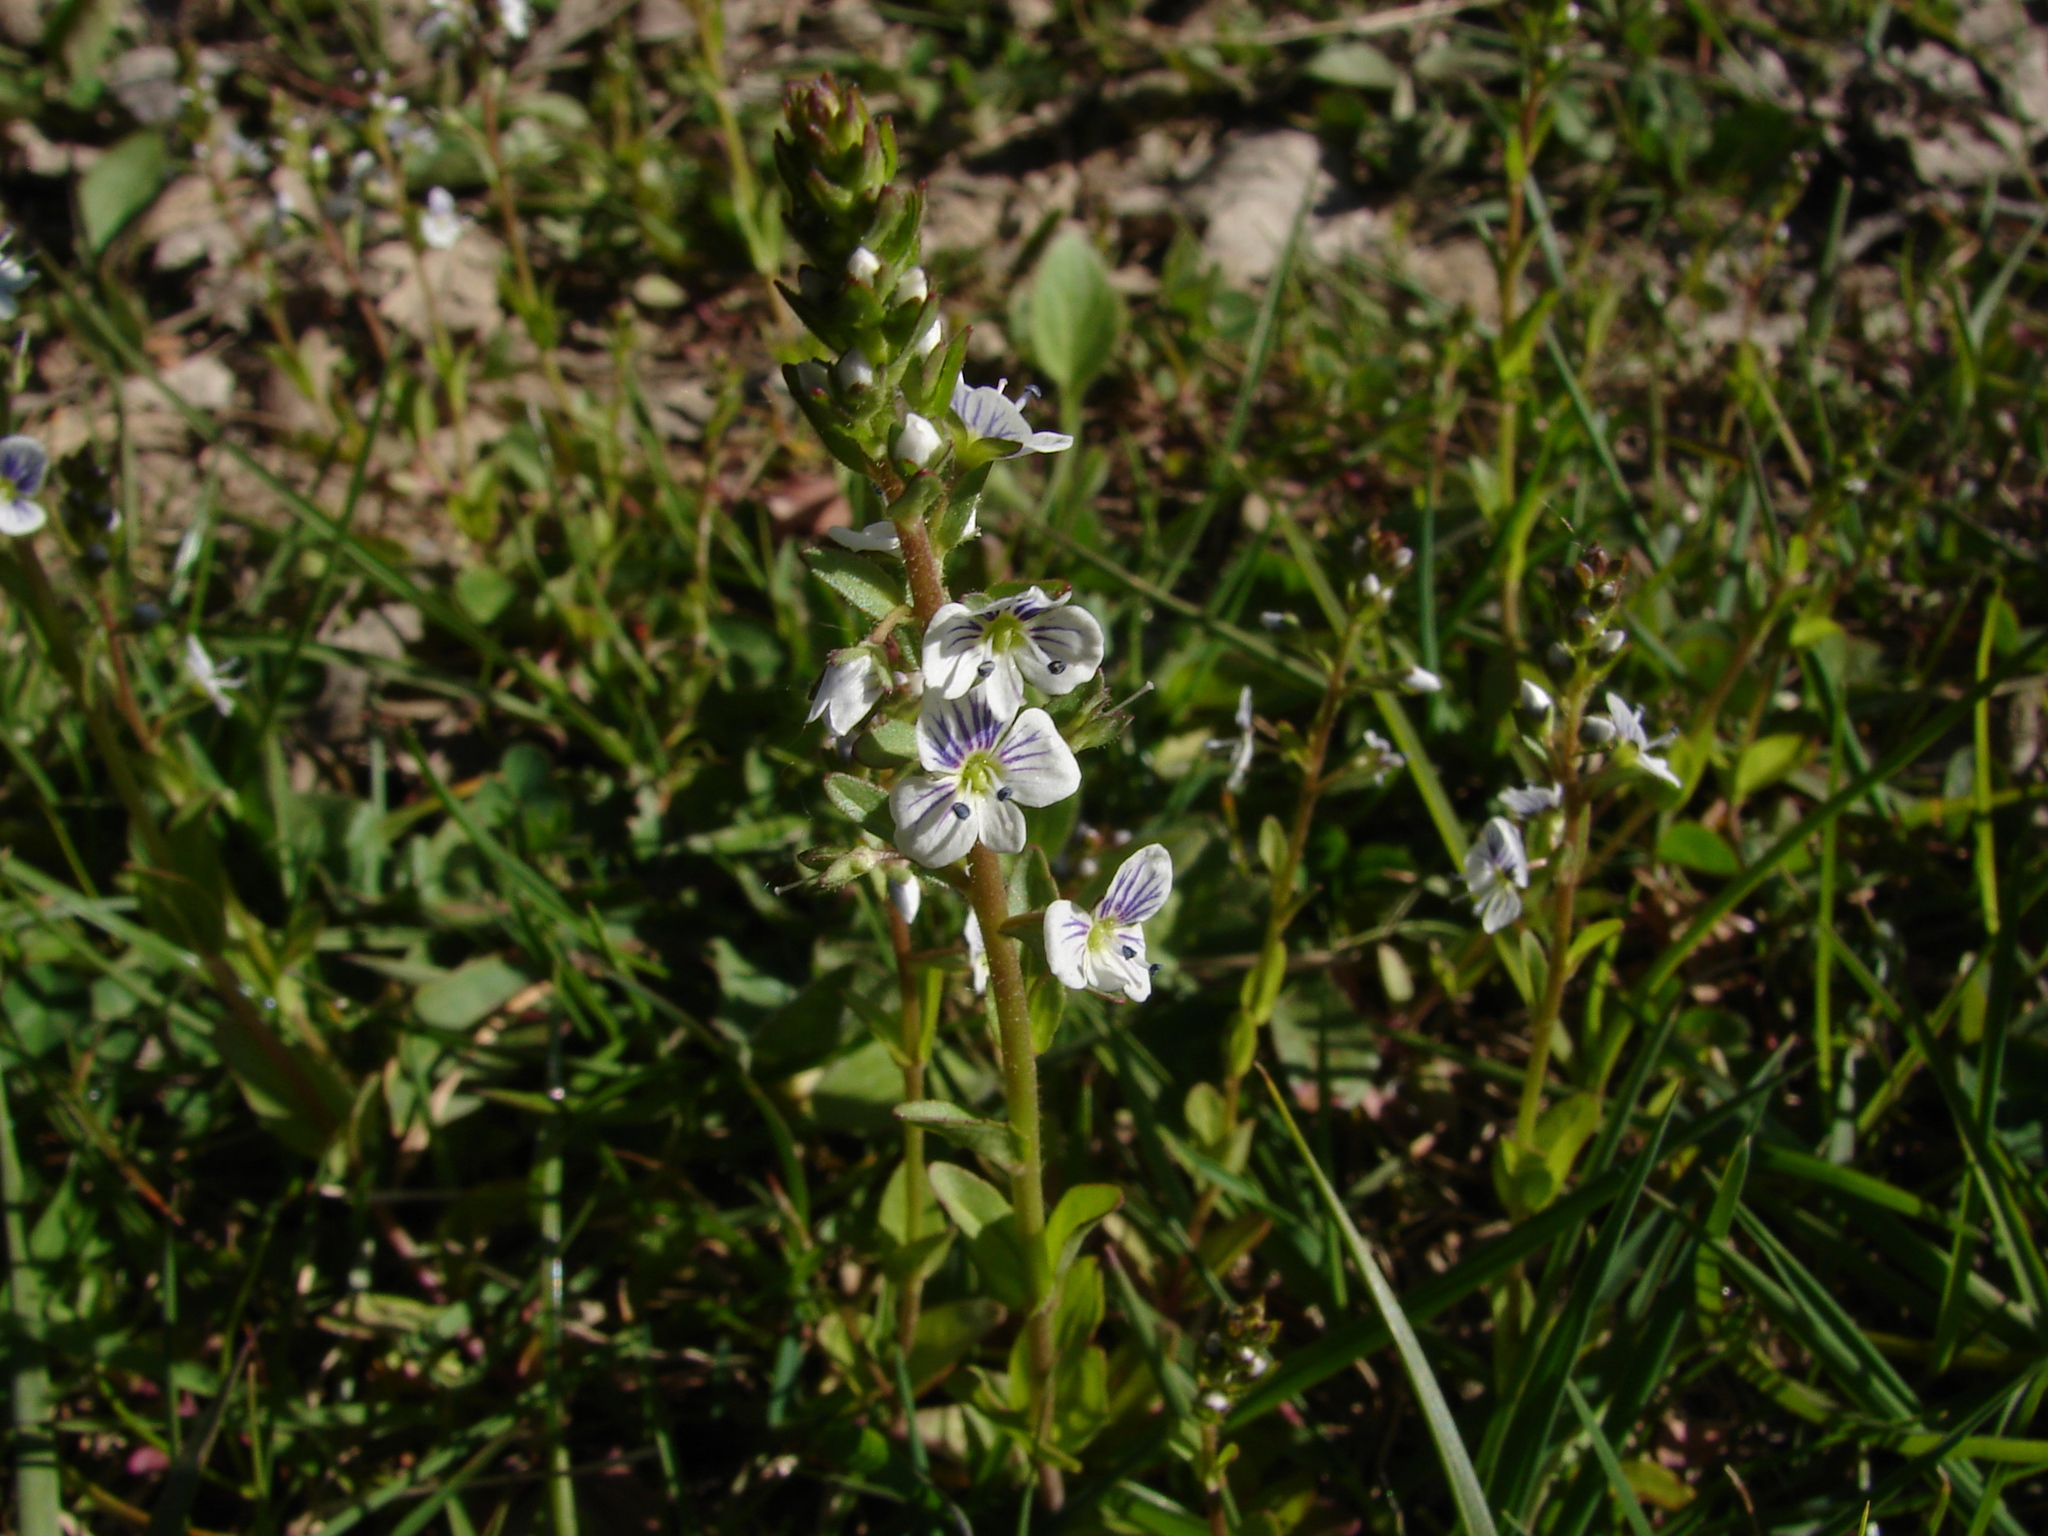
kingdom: Plantae
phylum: Tracheophyta
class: Magnoliopsida
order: Lamiales
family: Plantaginaceae
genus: Veronica
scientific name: Veronica serpyllifolia
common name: Thyme-leaved speedwell
